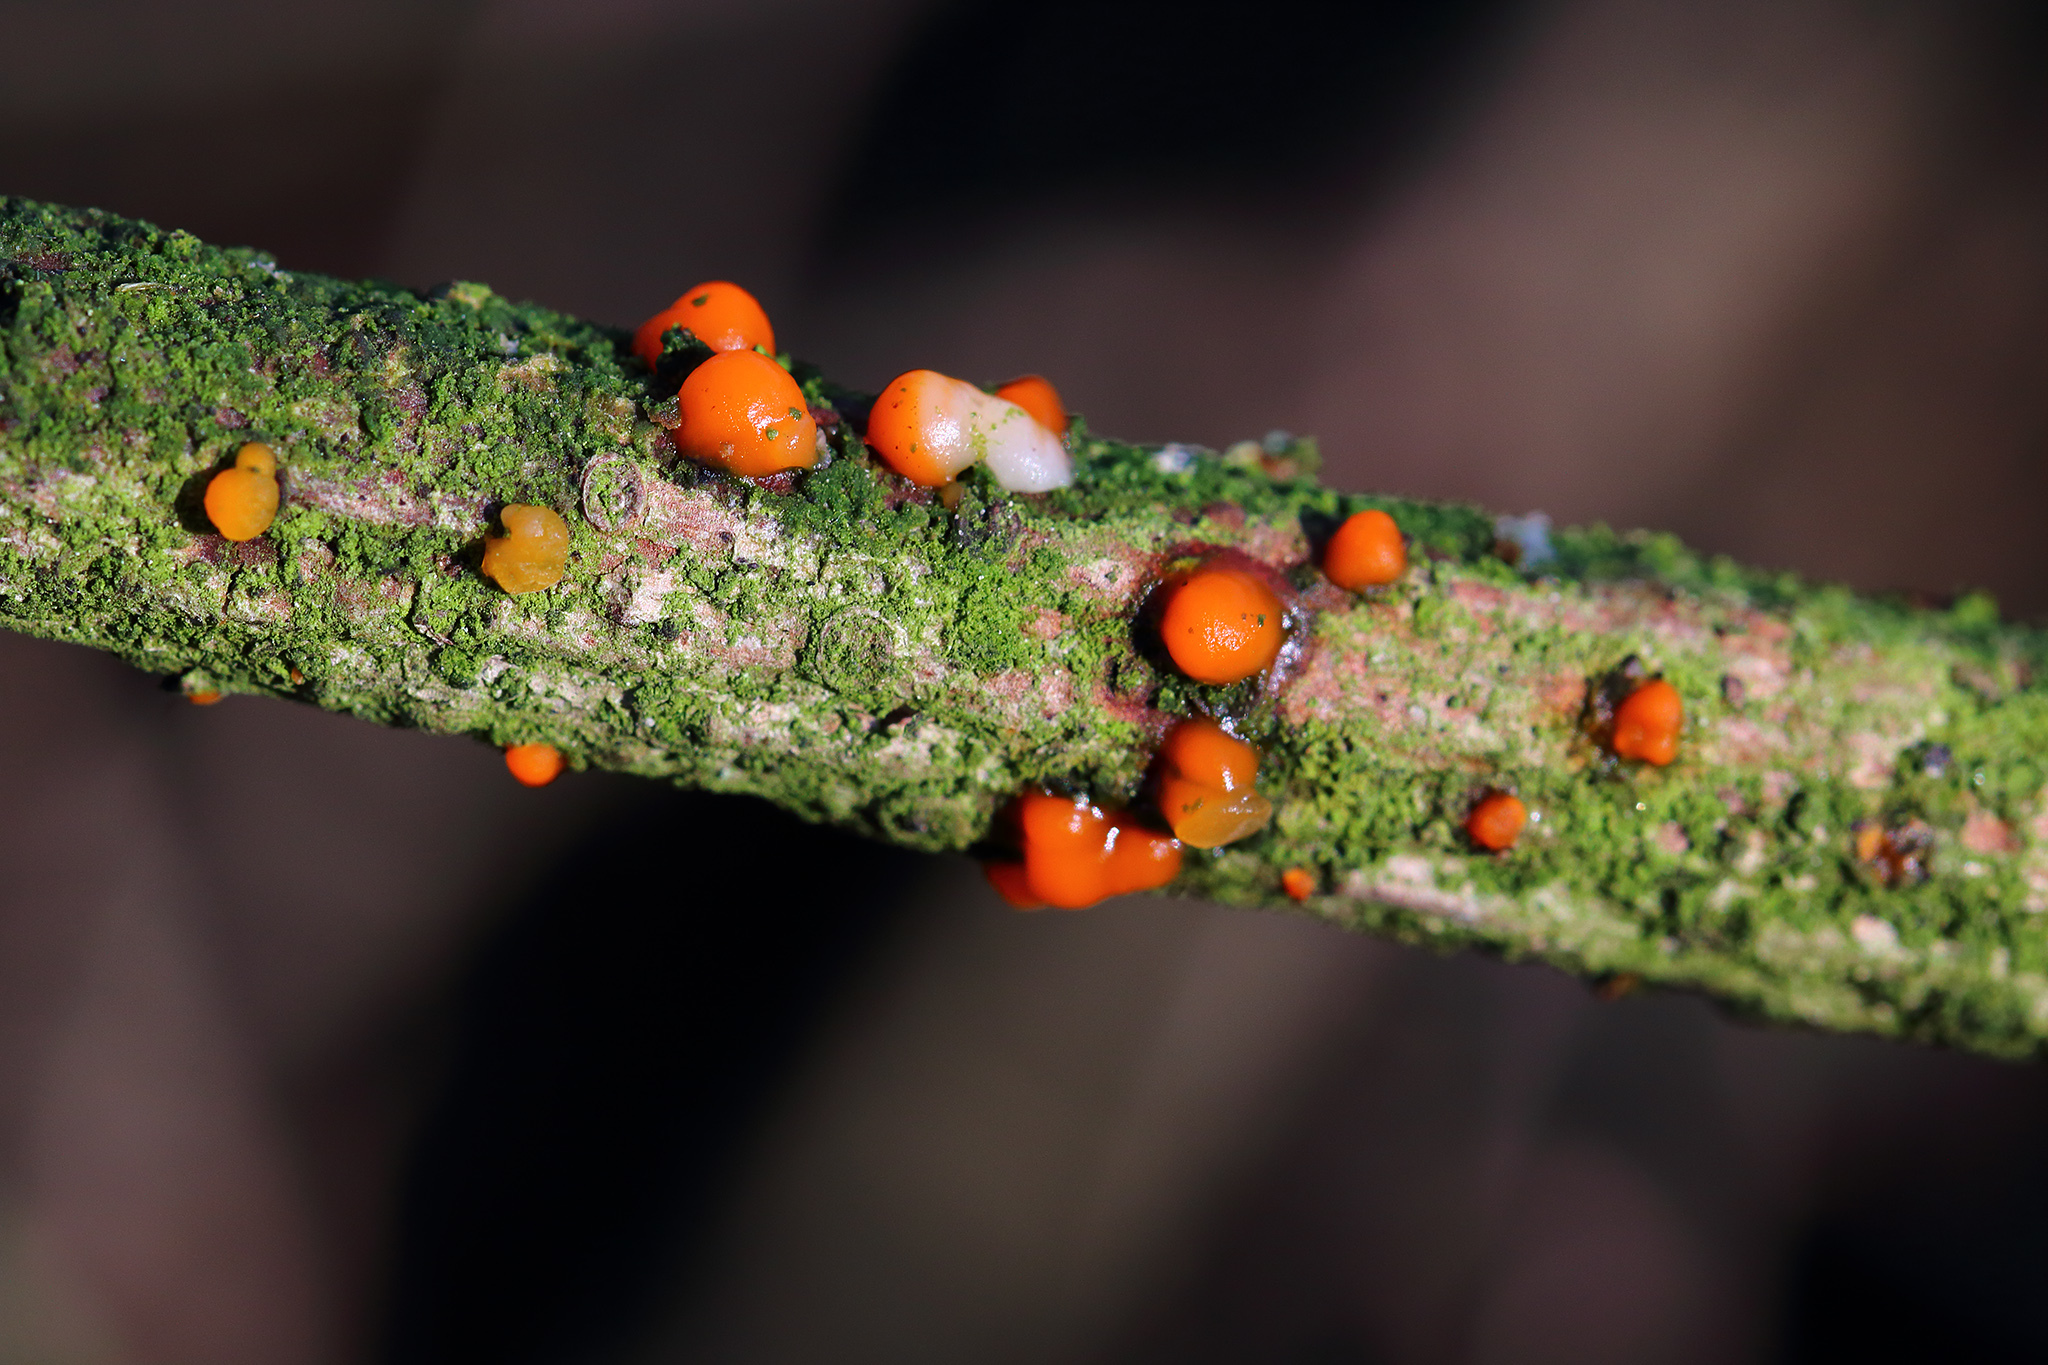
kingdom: Fungi
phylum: Basidiomycota
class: Dacrymycetes
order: Dacrymycetales
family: Dacrymycetaceae
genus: Dacrymyces
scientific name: Dacrymyces stillatus
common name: Common jelly spot
